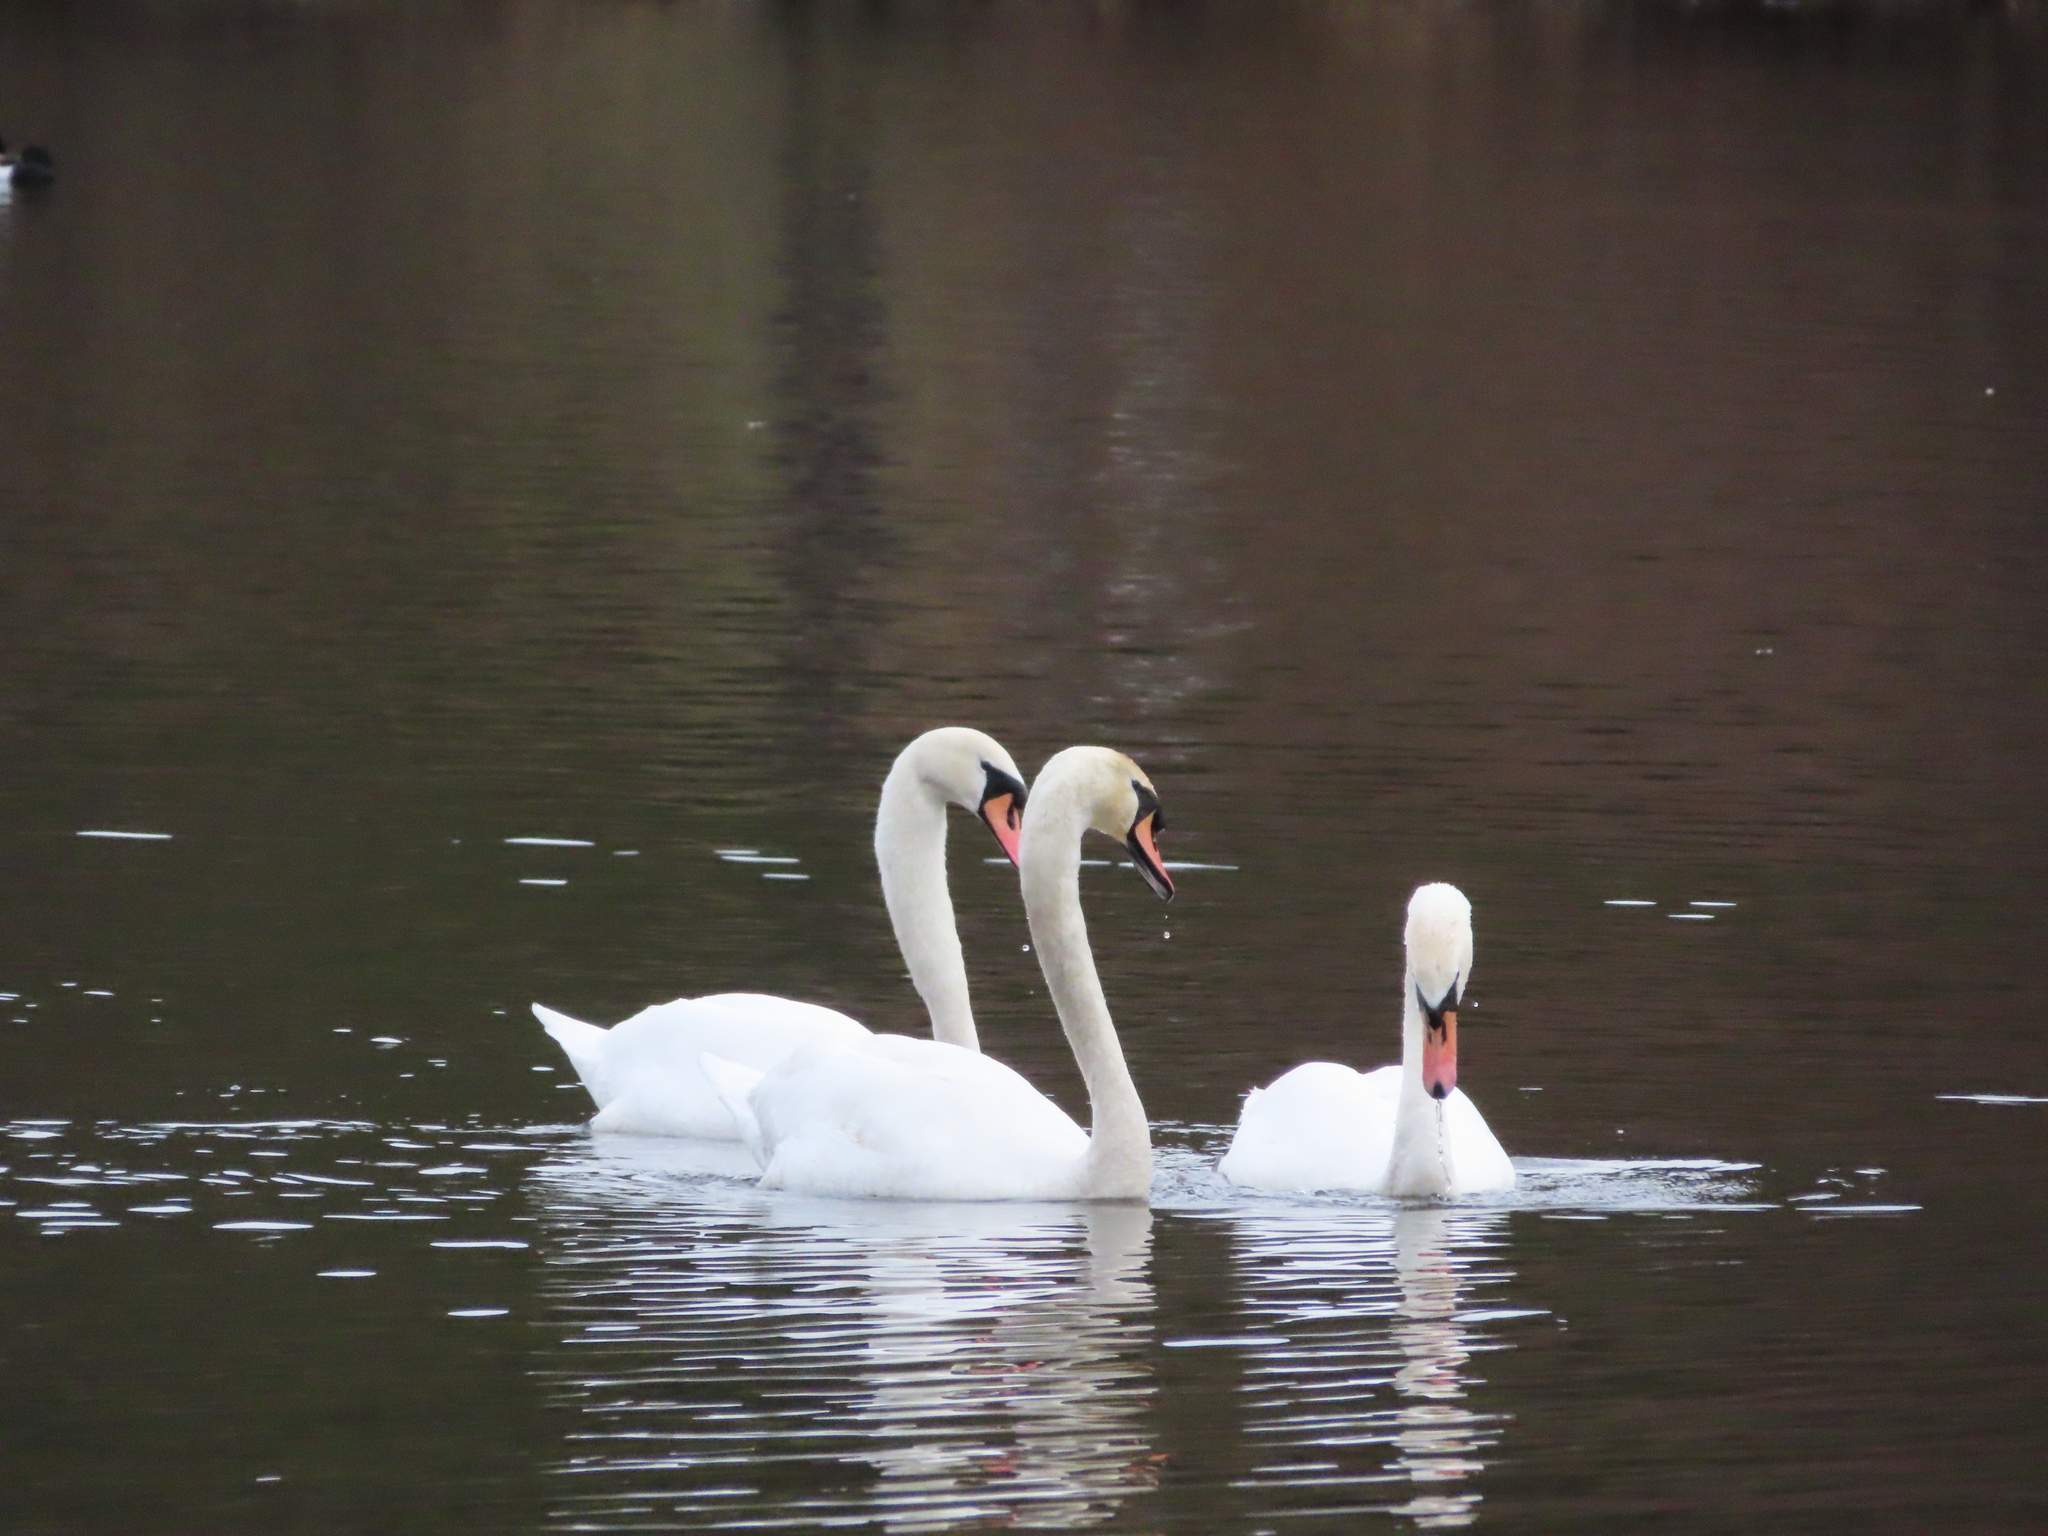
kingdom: Animalia
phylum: Chordata
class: Aves
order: Anseriformes
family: Anatidae
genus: Cygnus
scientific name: Cygnus olor
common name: Mute swan
